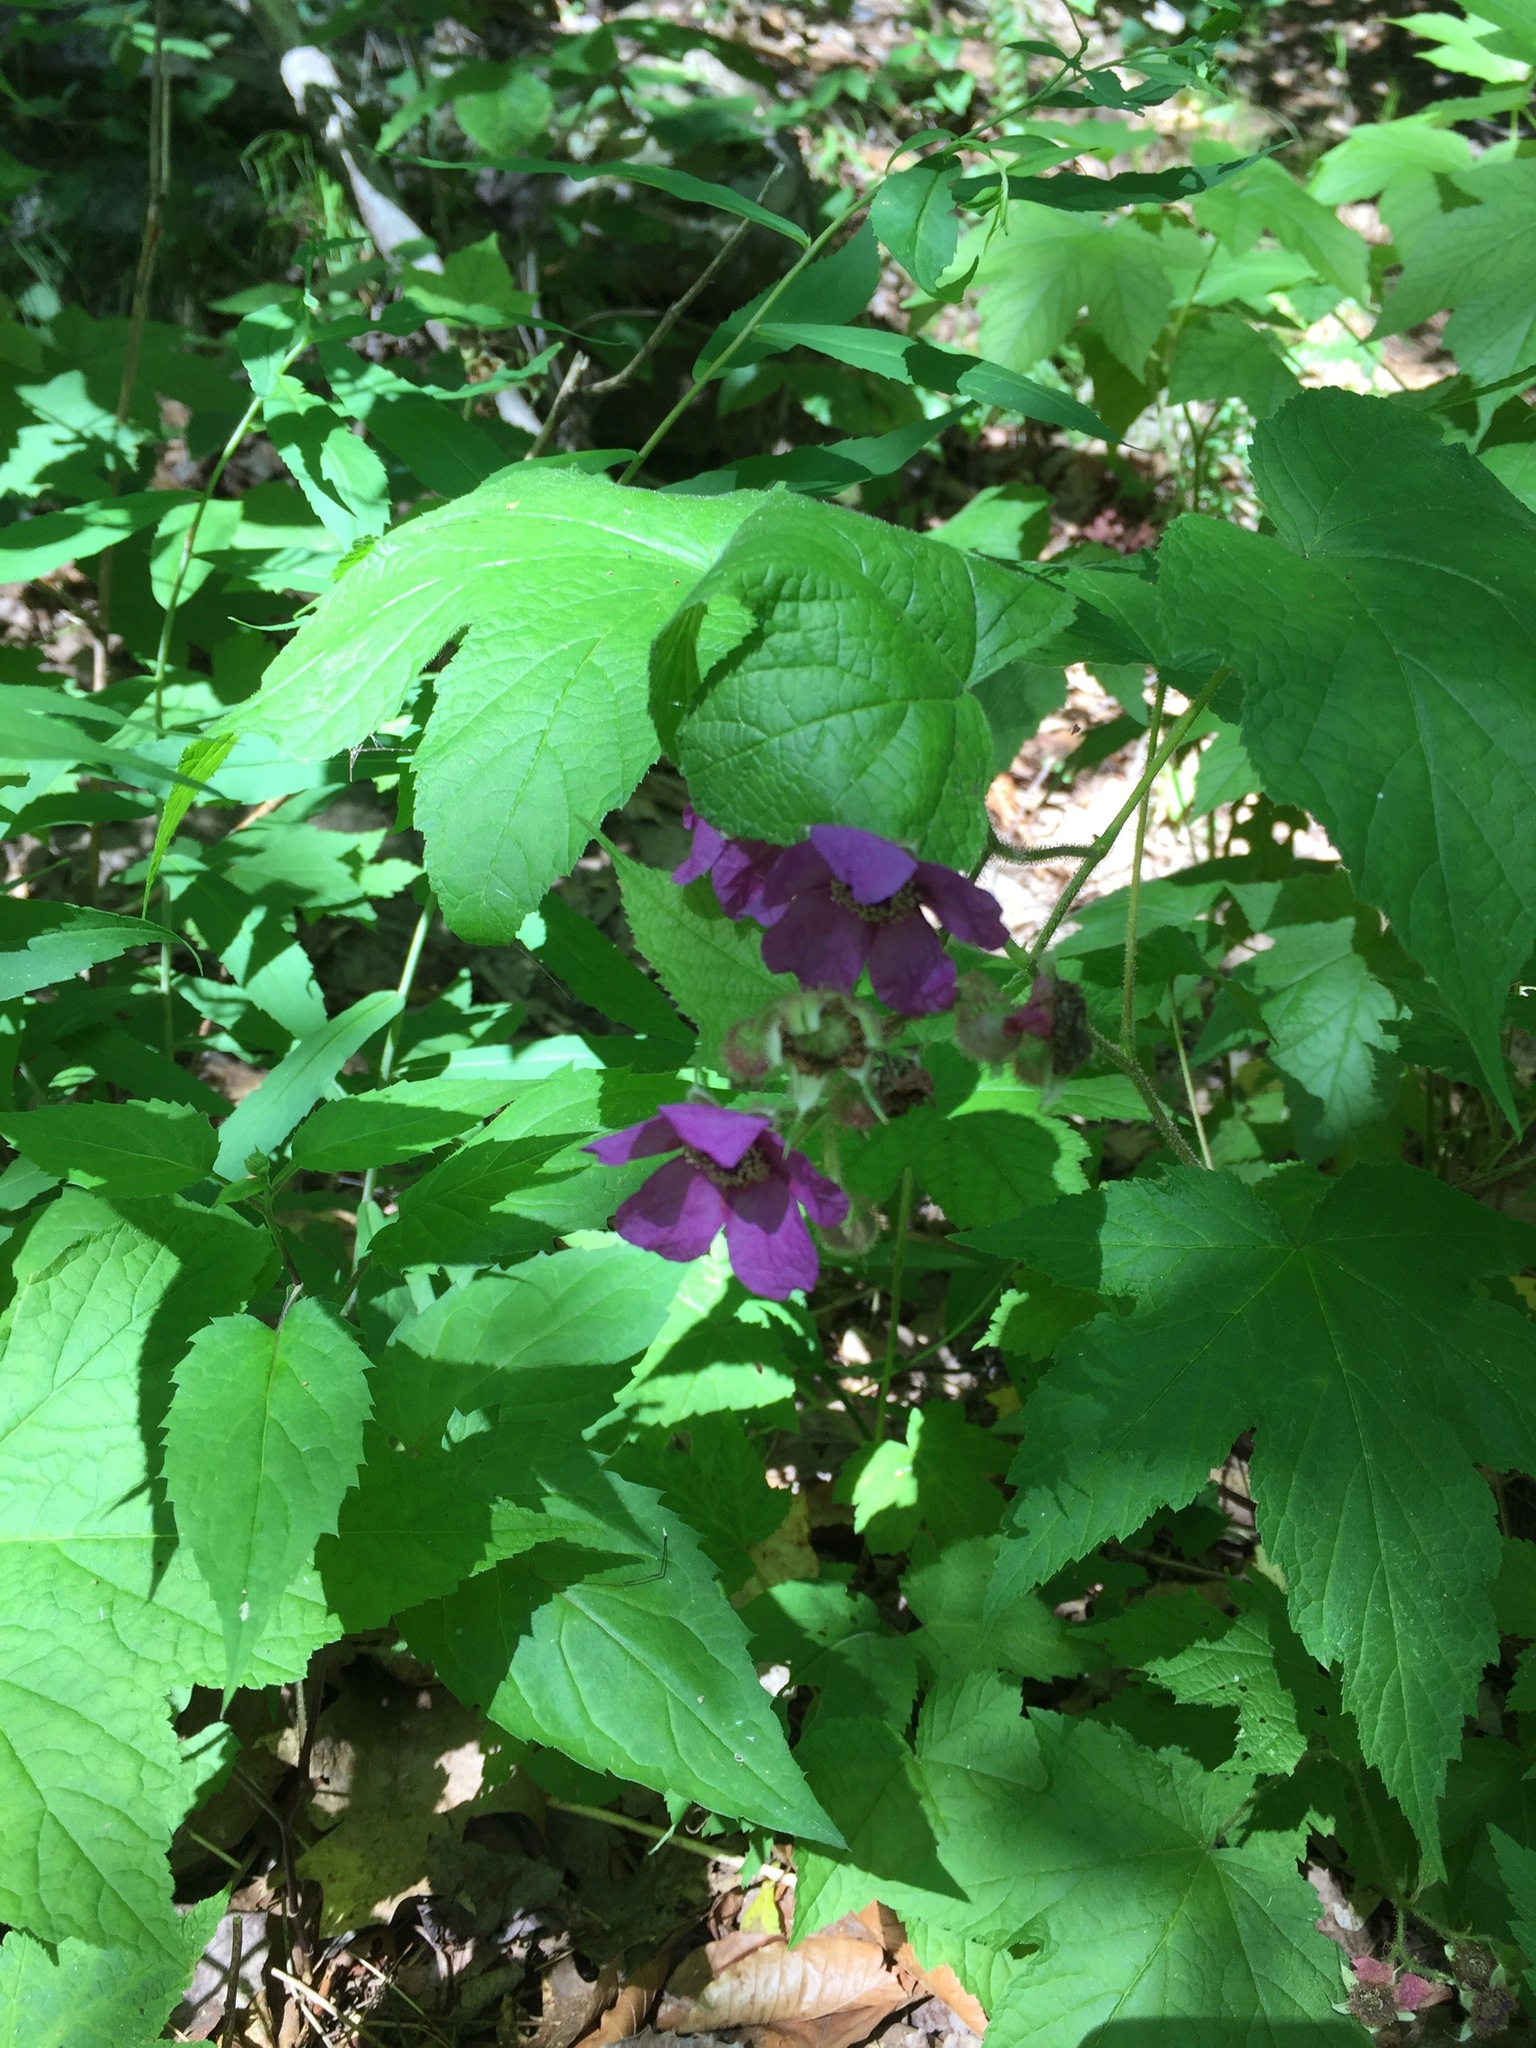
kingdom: Plantae
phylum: Tracheophyta
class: Magnoliopsida
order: Rosales
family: Rosaceae
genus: Rubus
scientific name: Rubus odoratus
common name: Purple-flowered raspberry
